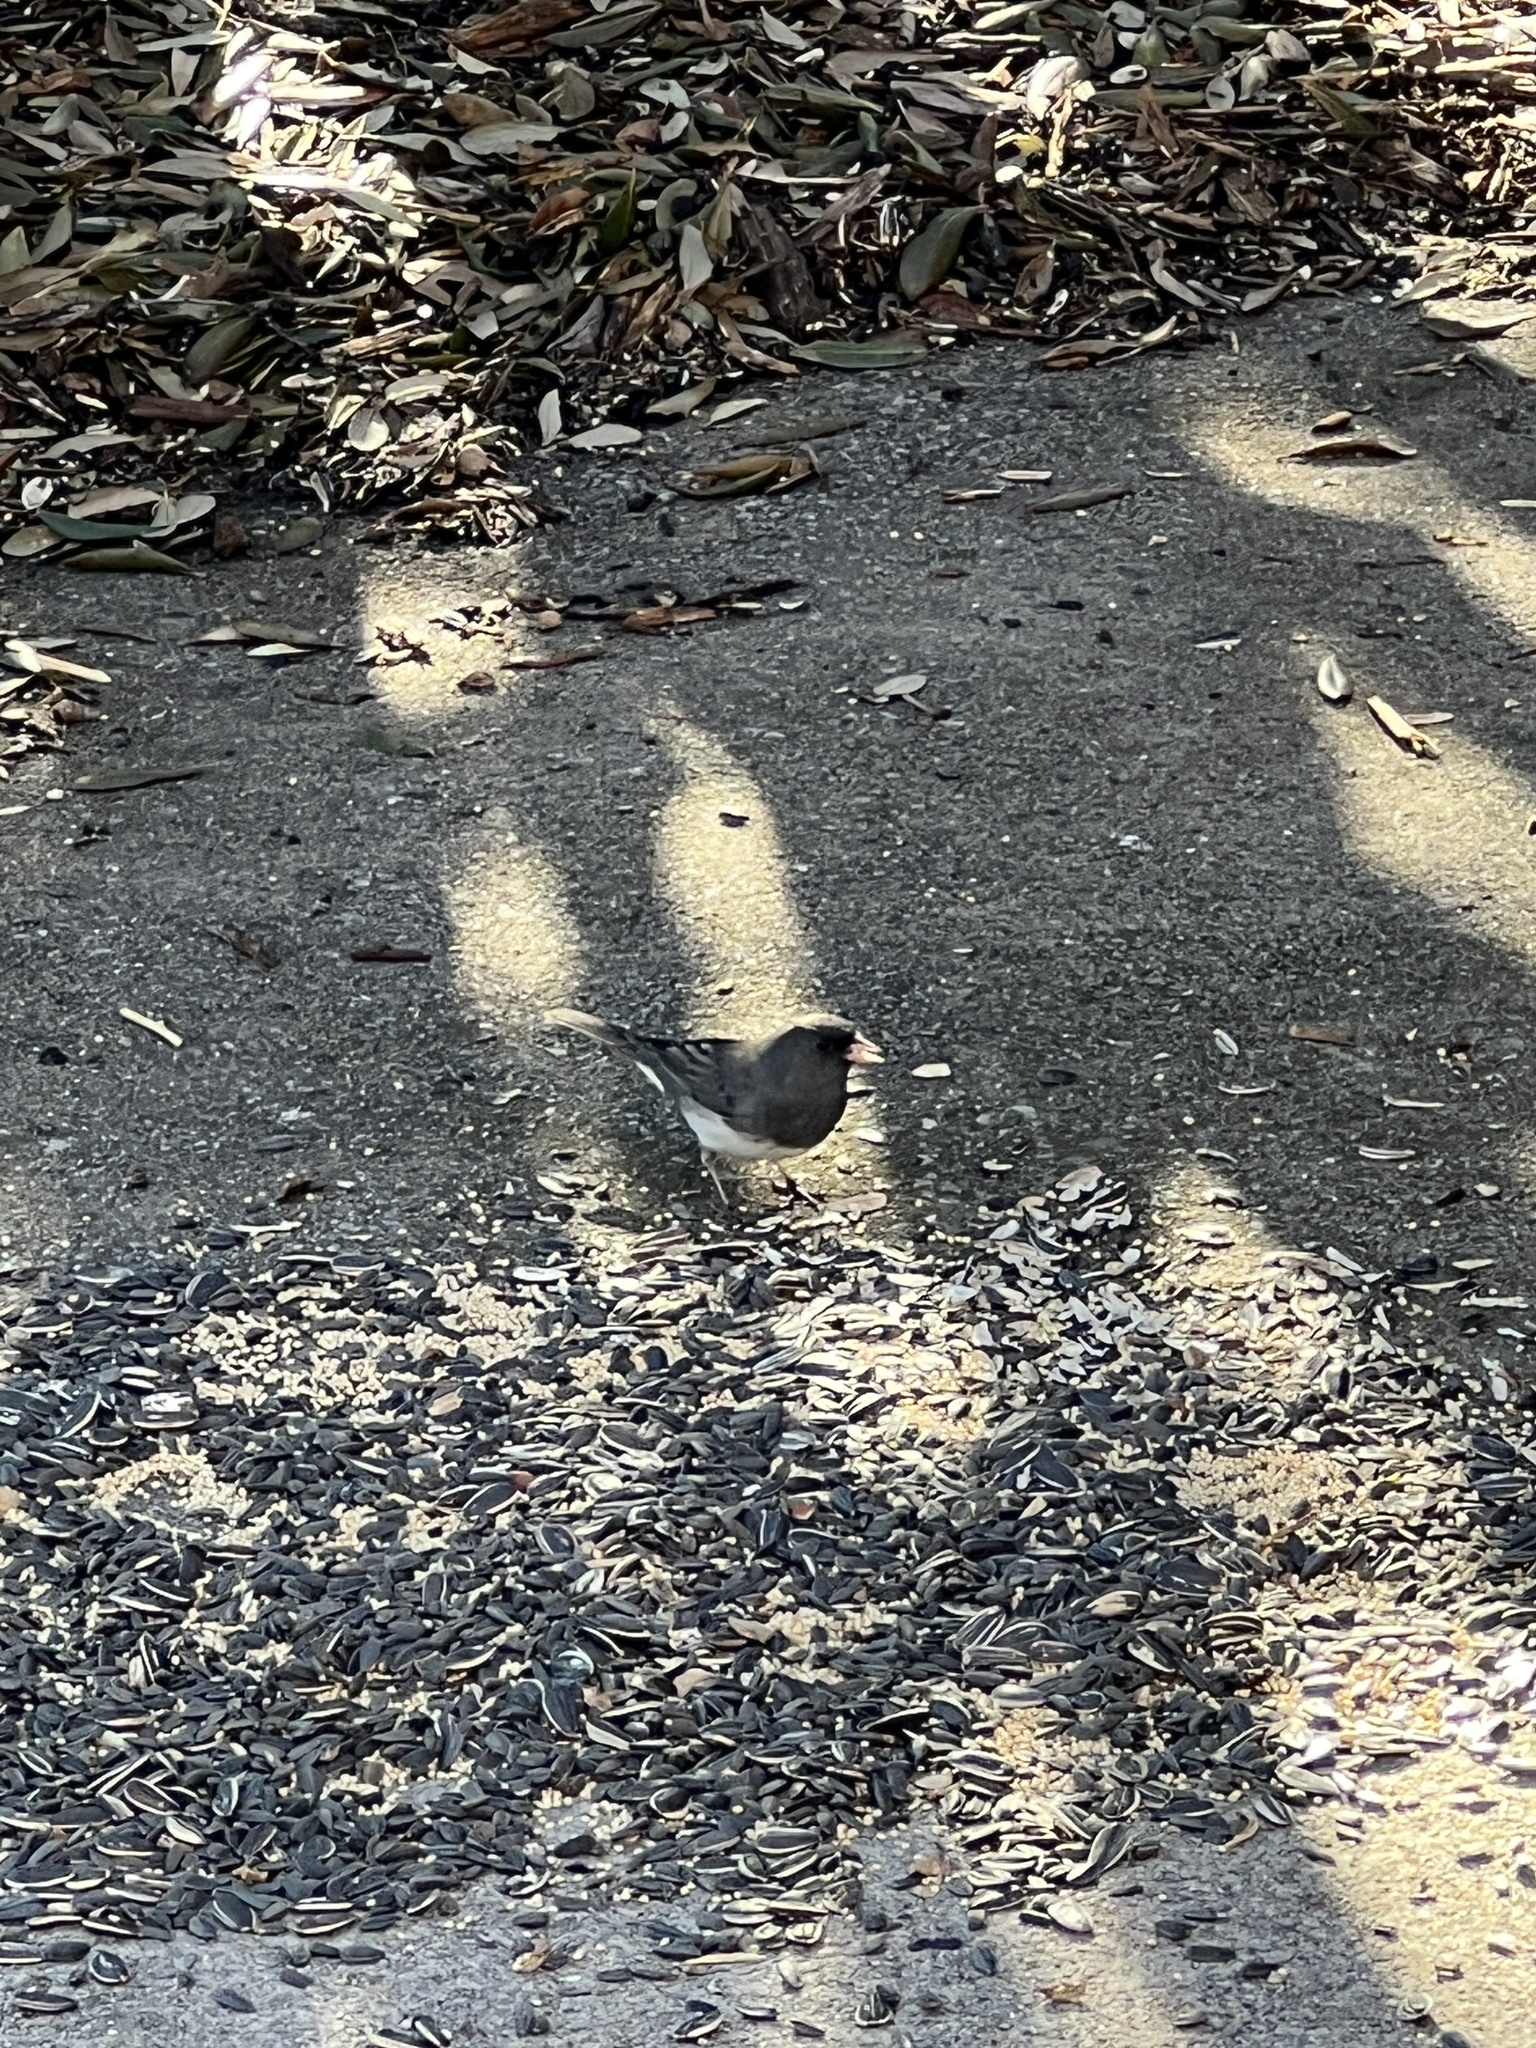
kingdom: Animalia
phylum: Chordata
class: Aves
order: Passeriformes
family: Passerellidae
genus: Junco
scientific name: Junco hyemalis
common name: Dark-eyed junco
